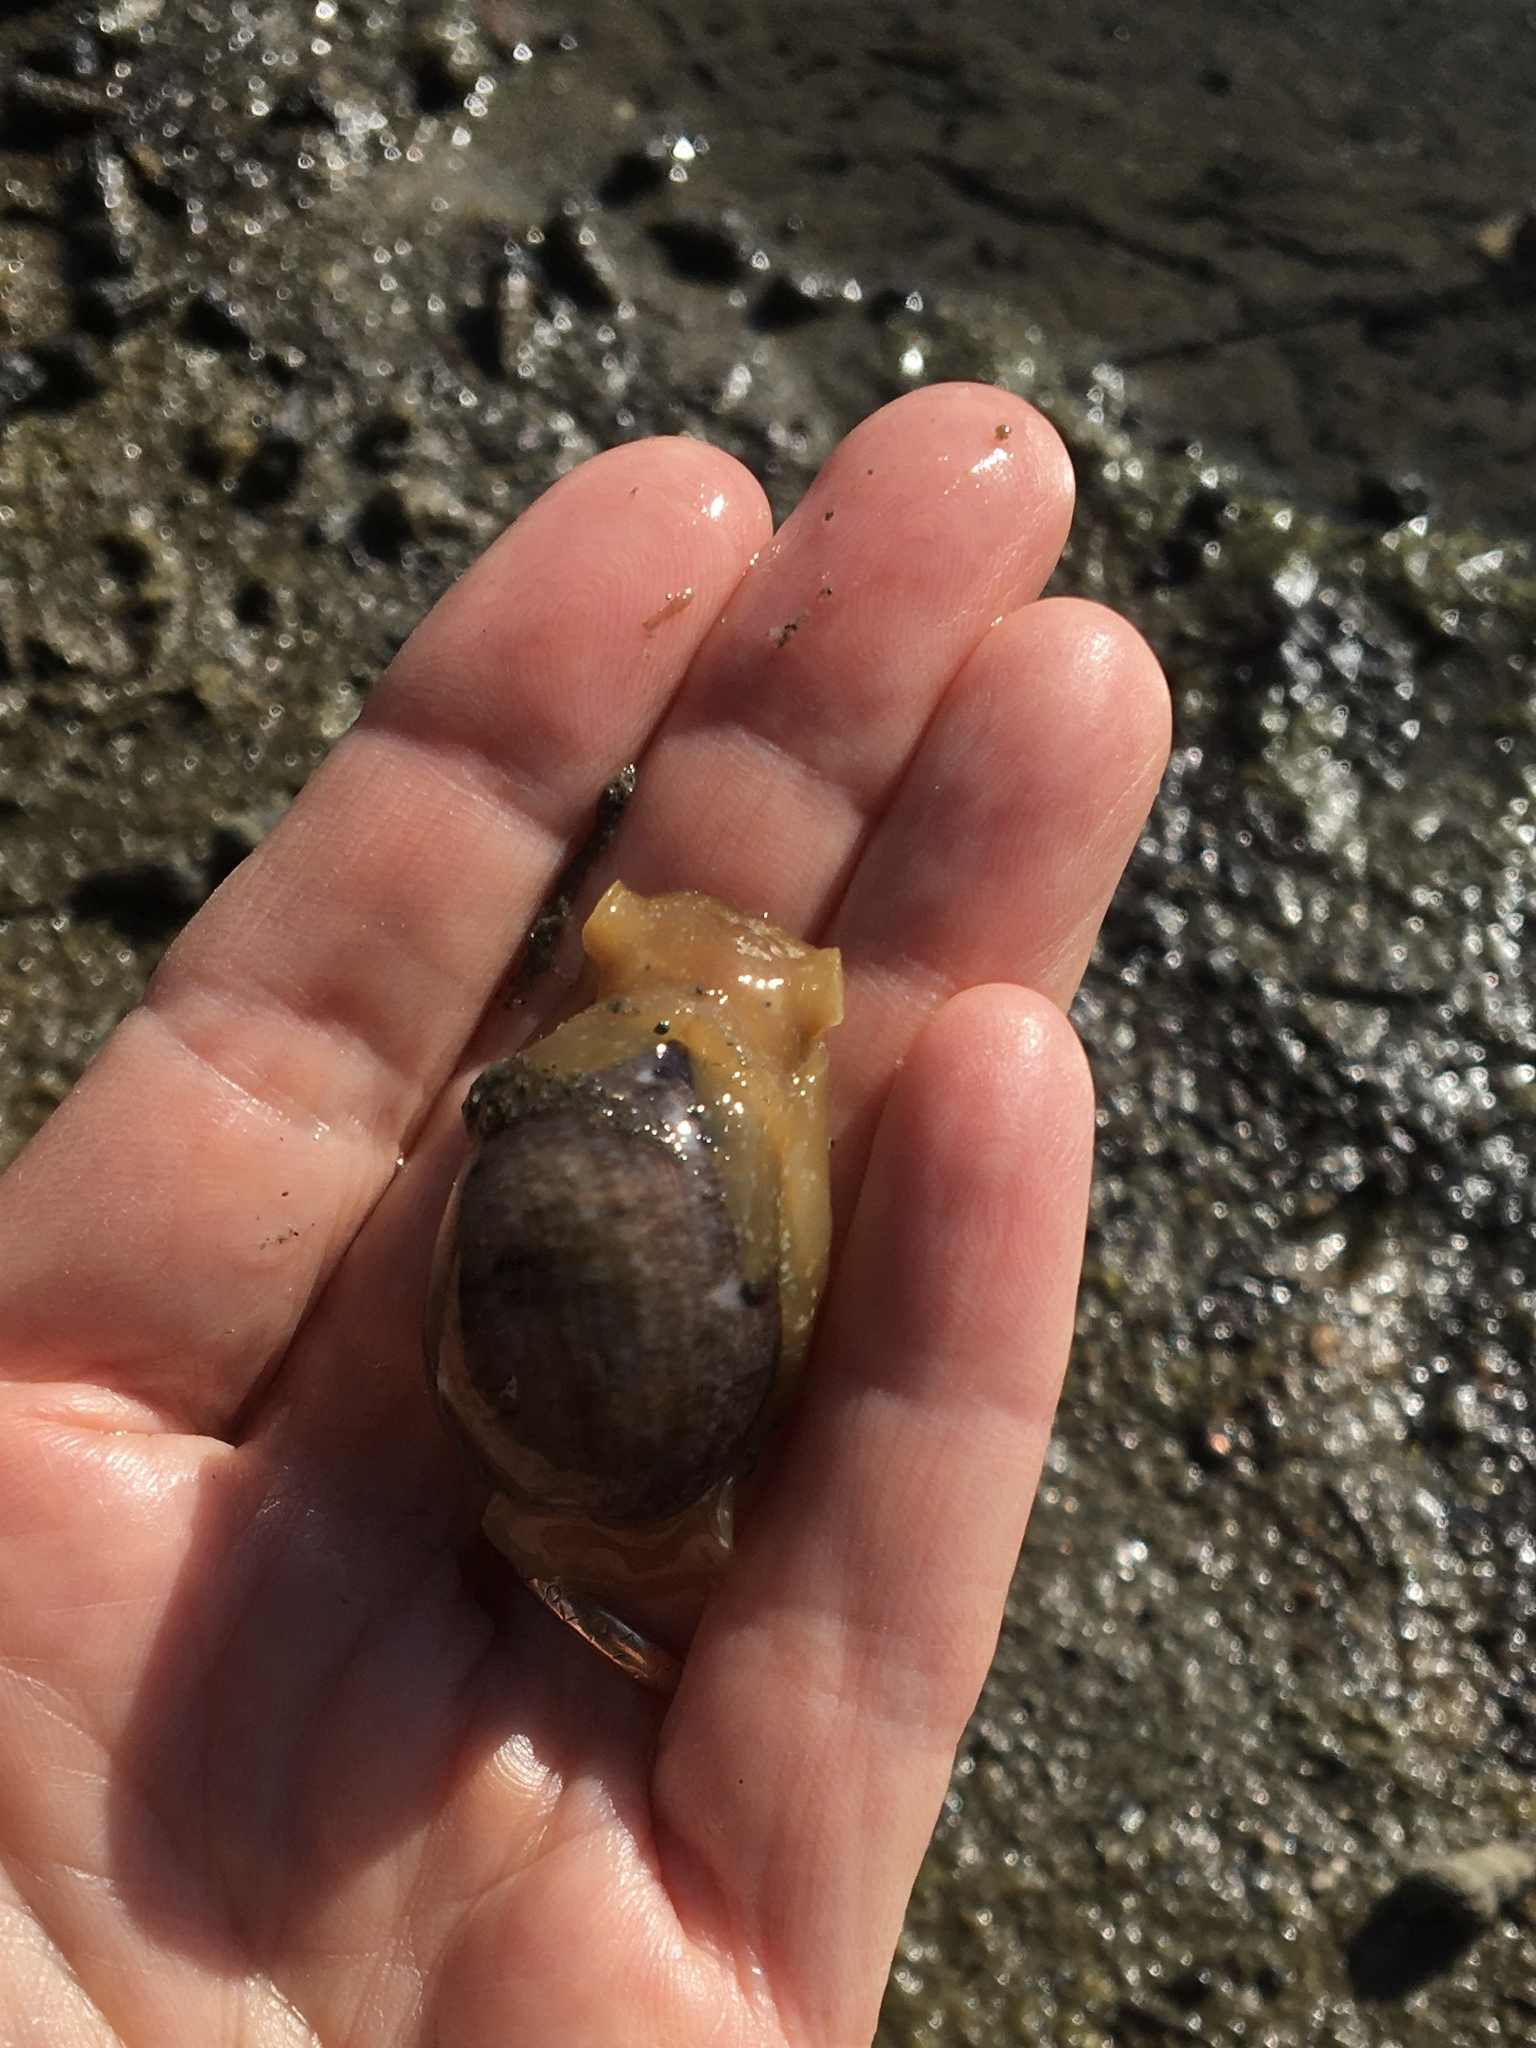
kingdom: Animalia
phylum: Mollusca
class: Gastropoda
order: Cephalaspidea
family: Bullidae
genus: Bulla
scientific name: Bulla gouldiana
